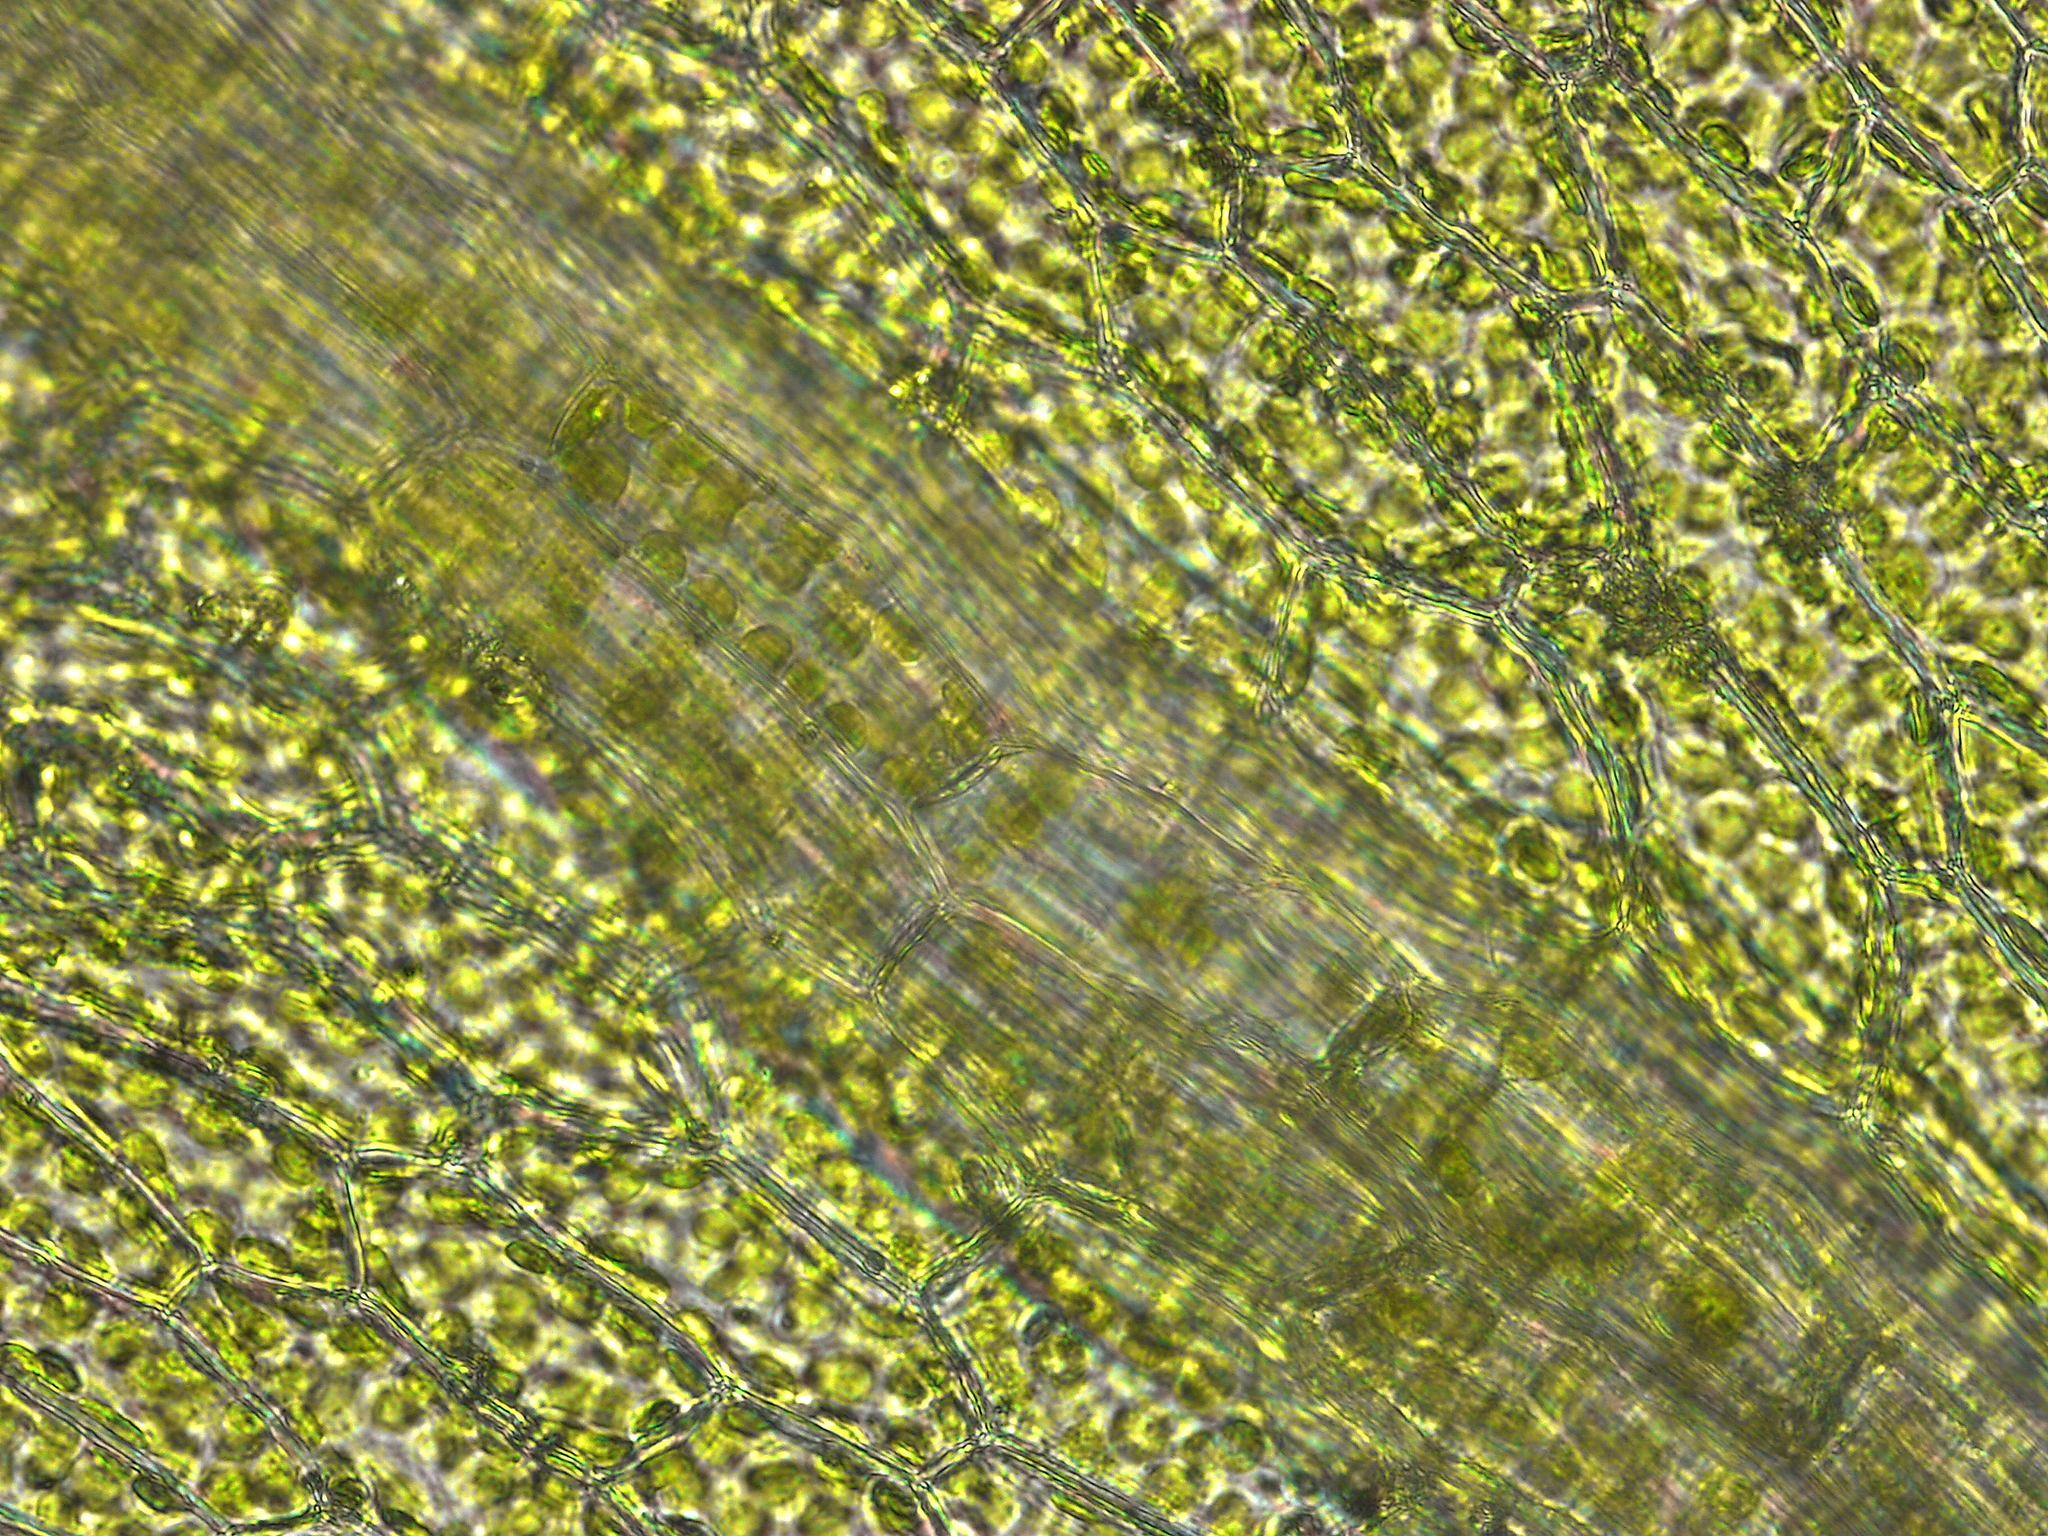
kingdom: Plantae
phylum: Bryophyta
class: Bryopsida
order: Hypnodendrales
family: Racopilaceae
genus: Racopilum
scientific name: Racopilum cuspidigerum
